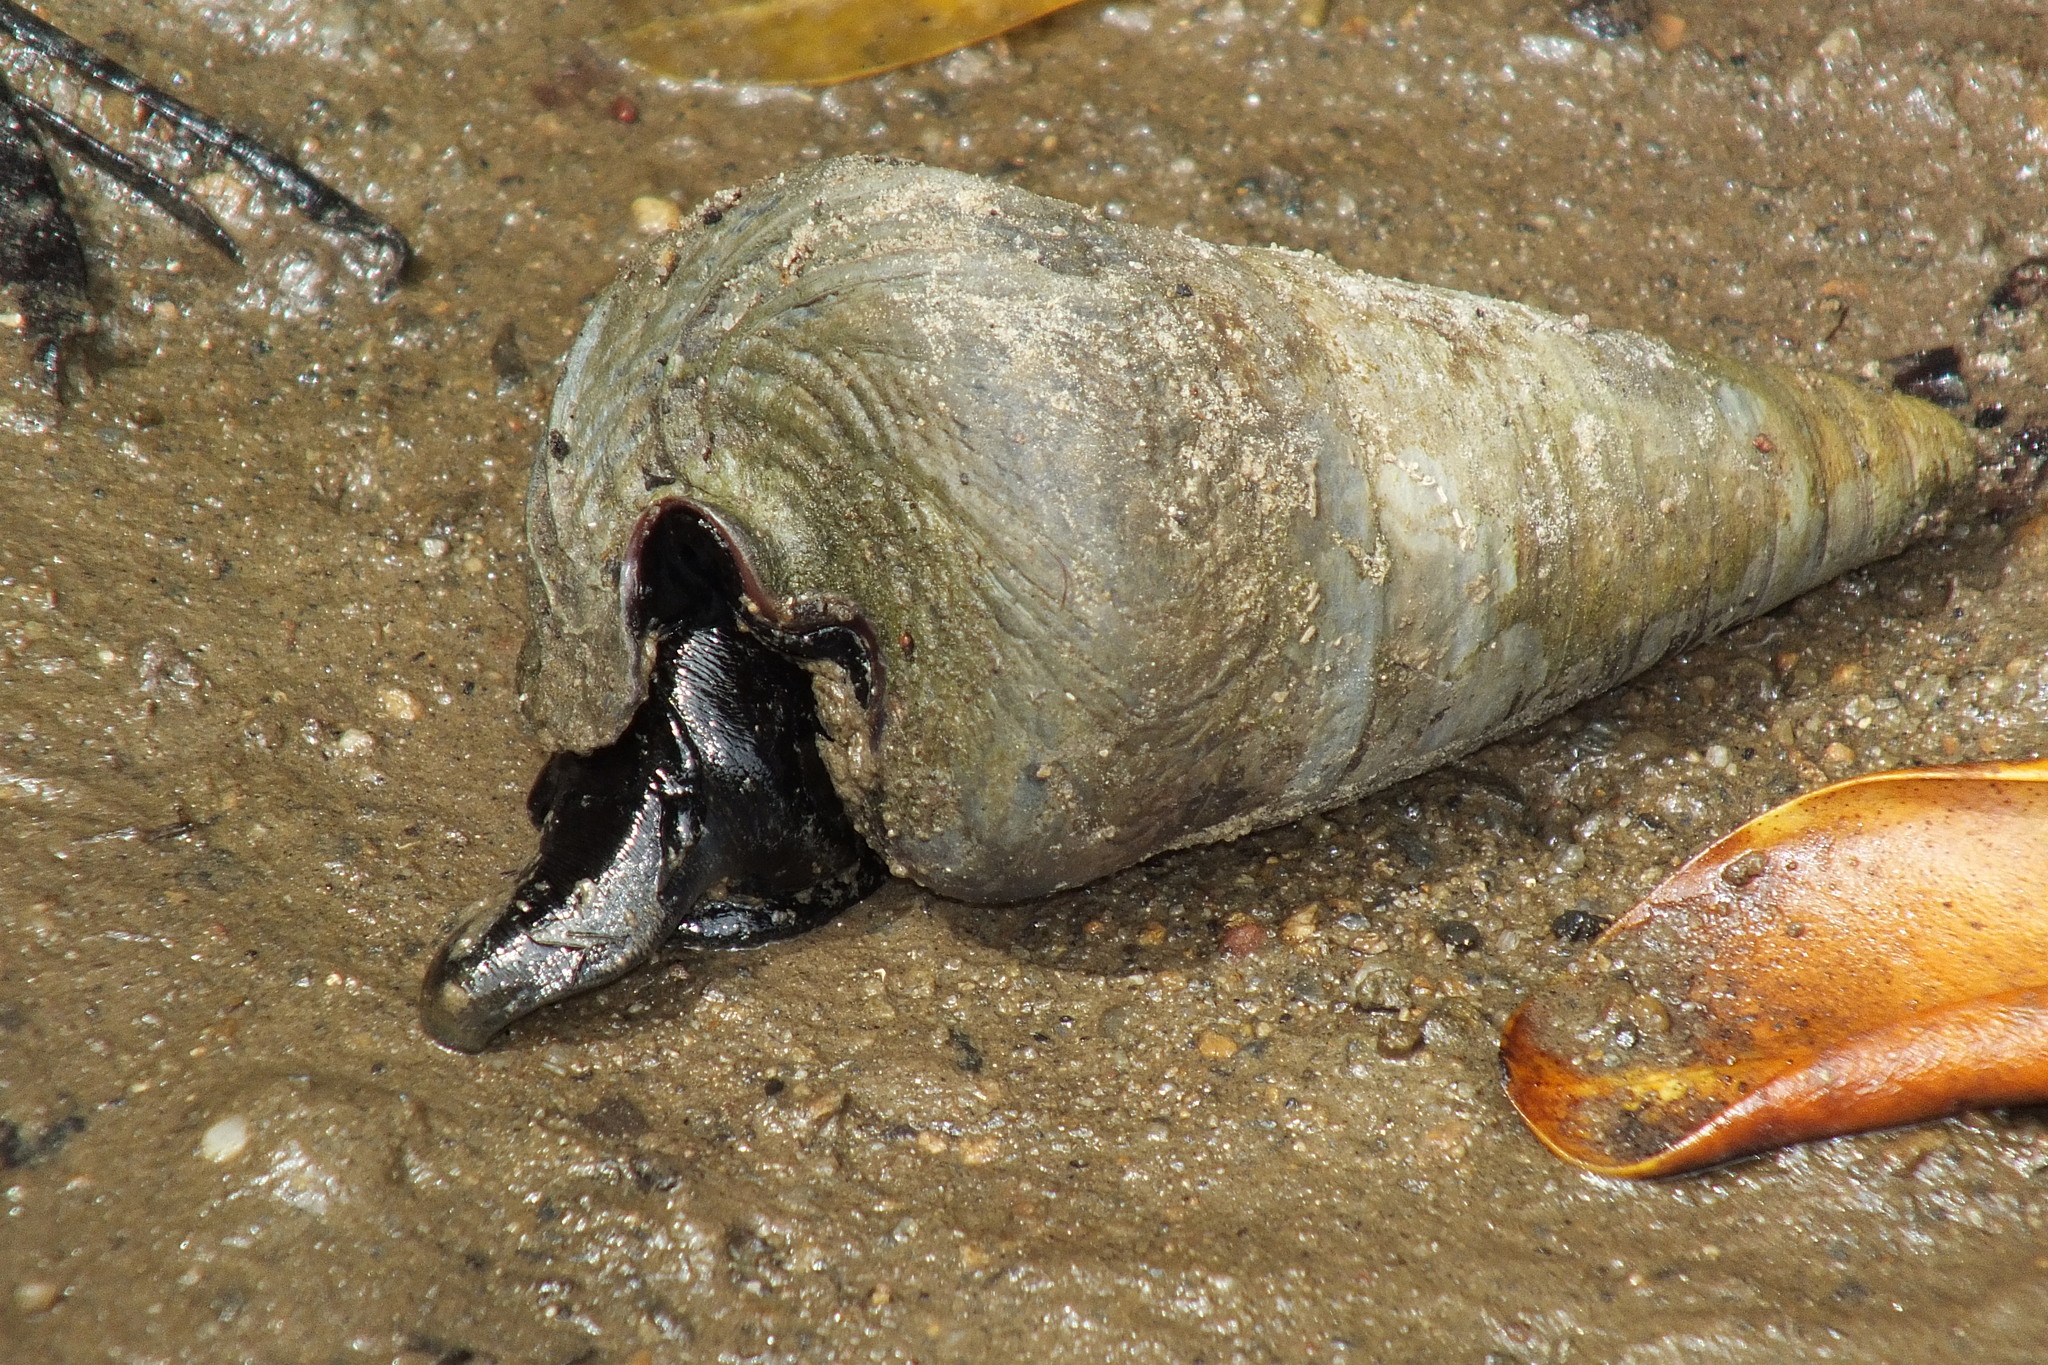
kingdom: Animalia
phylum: Mollusca
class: Gastropoda
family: Potamididae
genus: Telescopium
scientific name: Telescopium telescopium
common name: Telescope creeper
